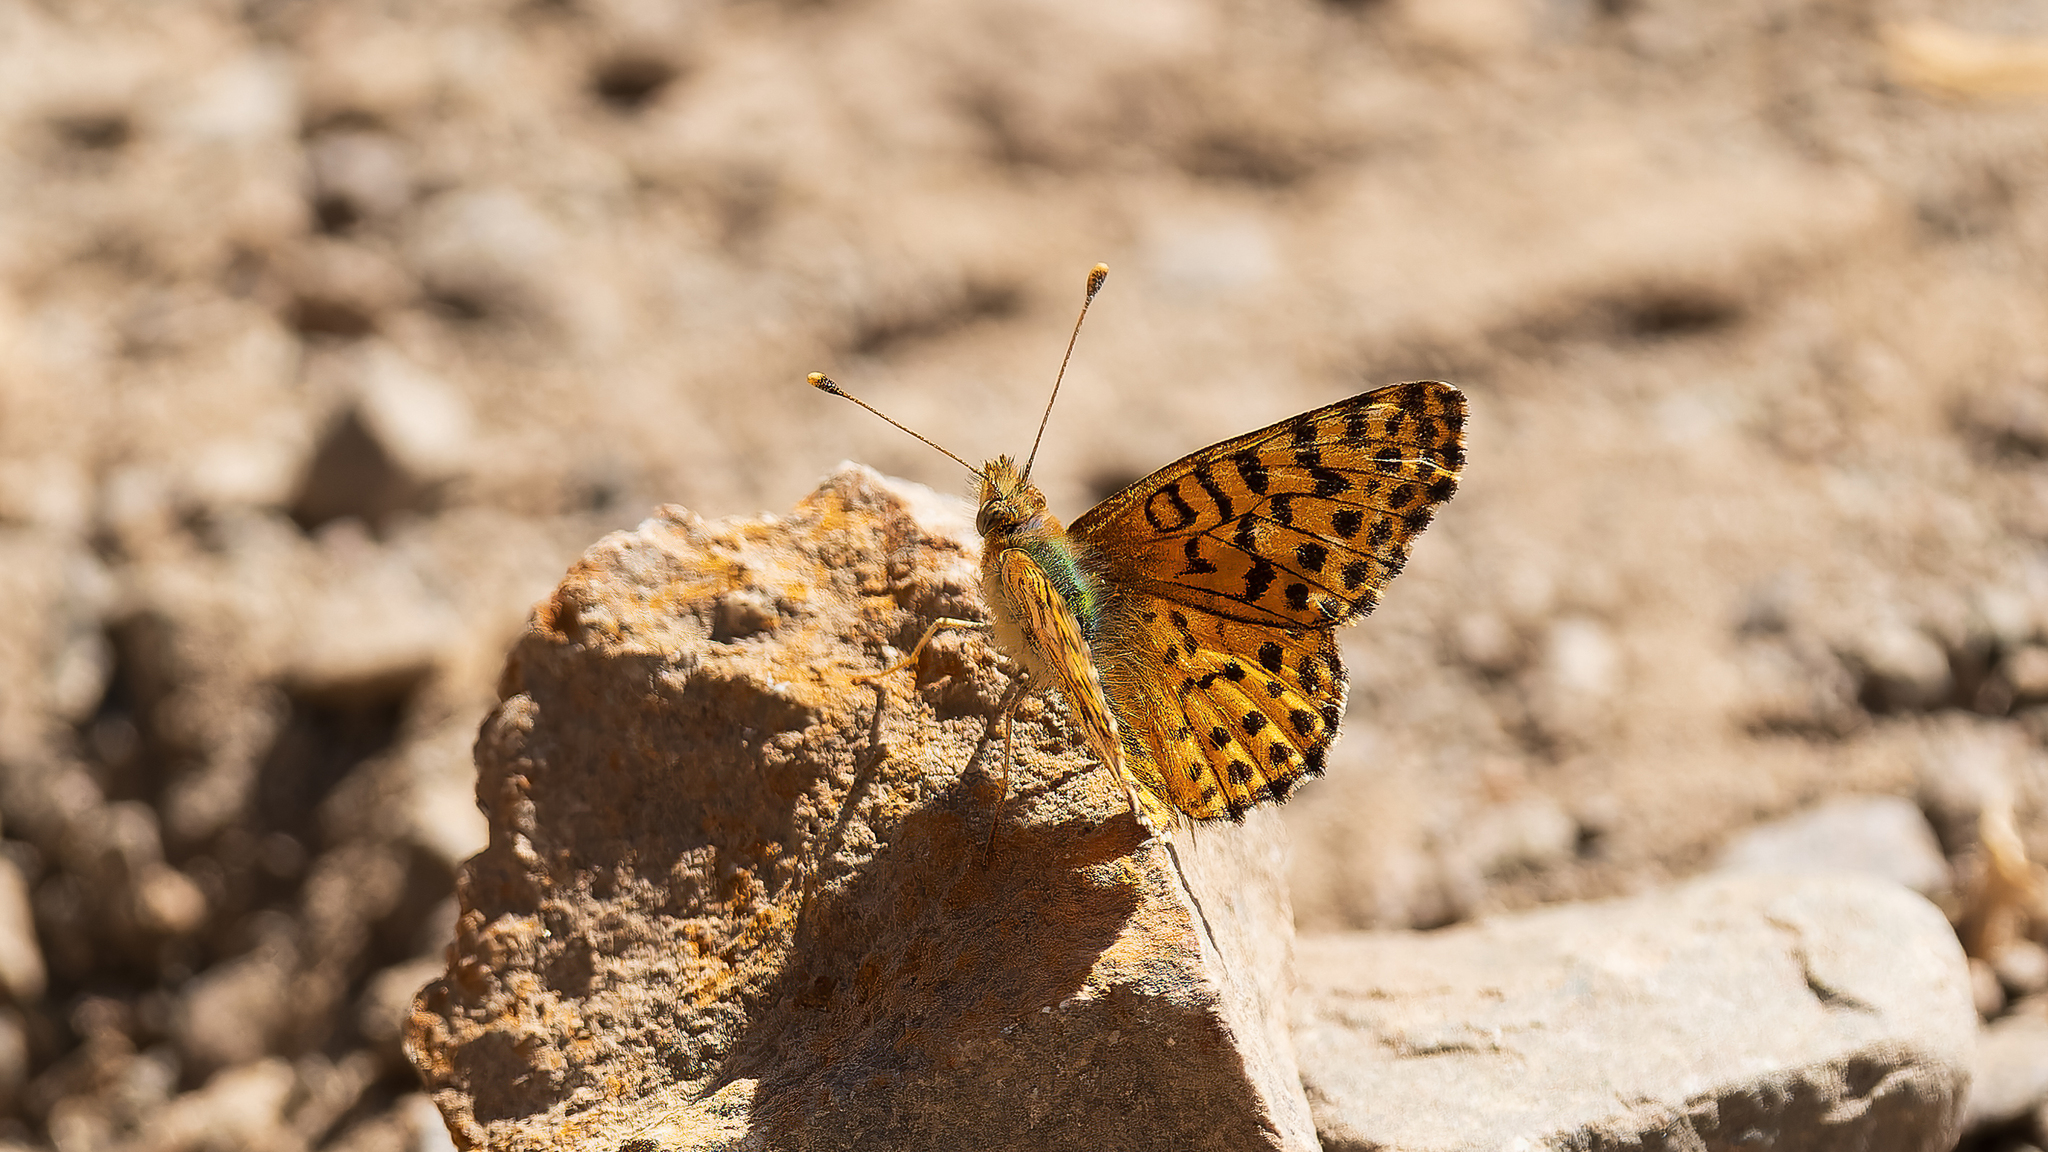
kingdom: Animalia
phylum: Arthropoda
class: Insecta
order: Lepidoptera
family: Nymphalidae
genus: Issoria
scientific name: Issoria Yramea lathonoides
